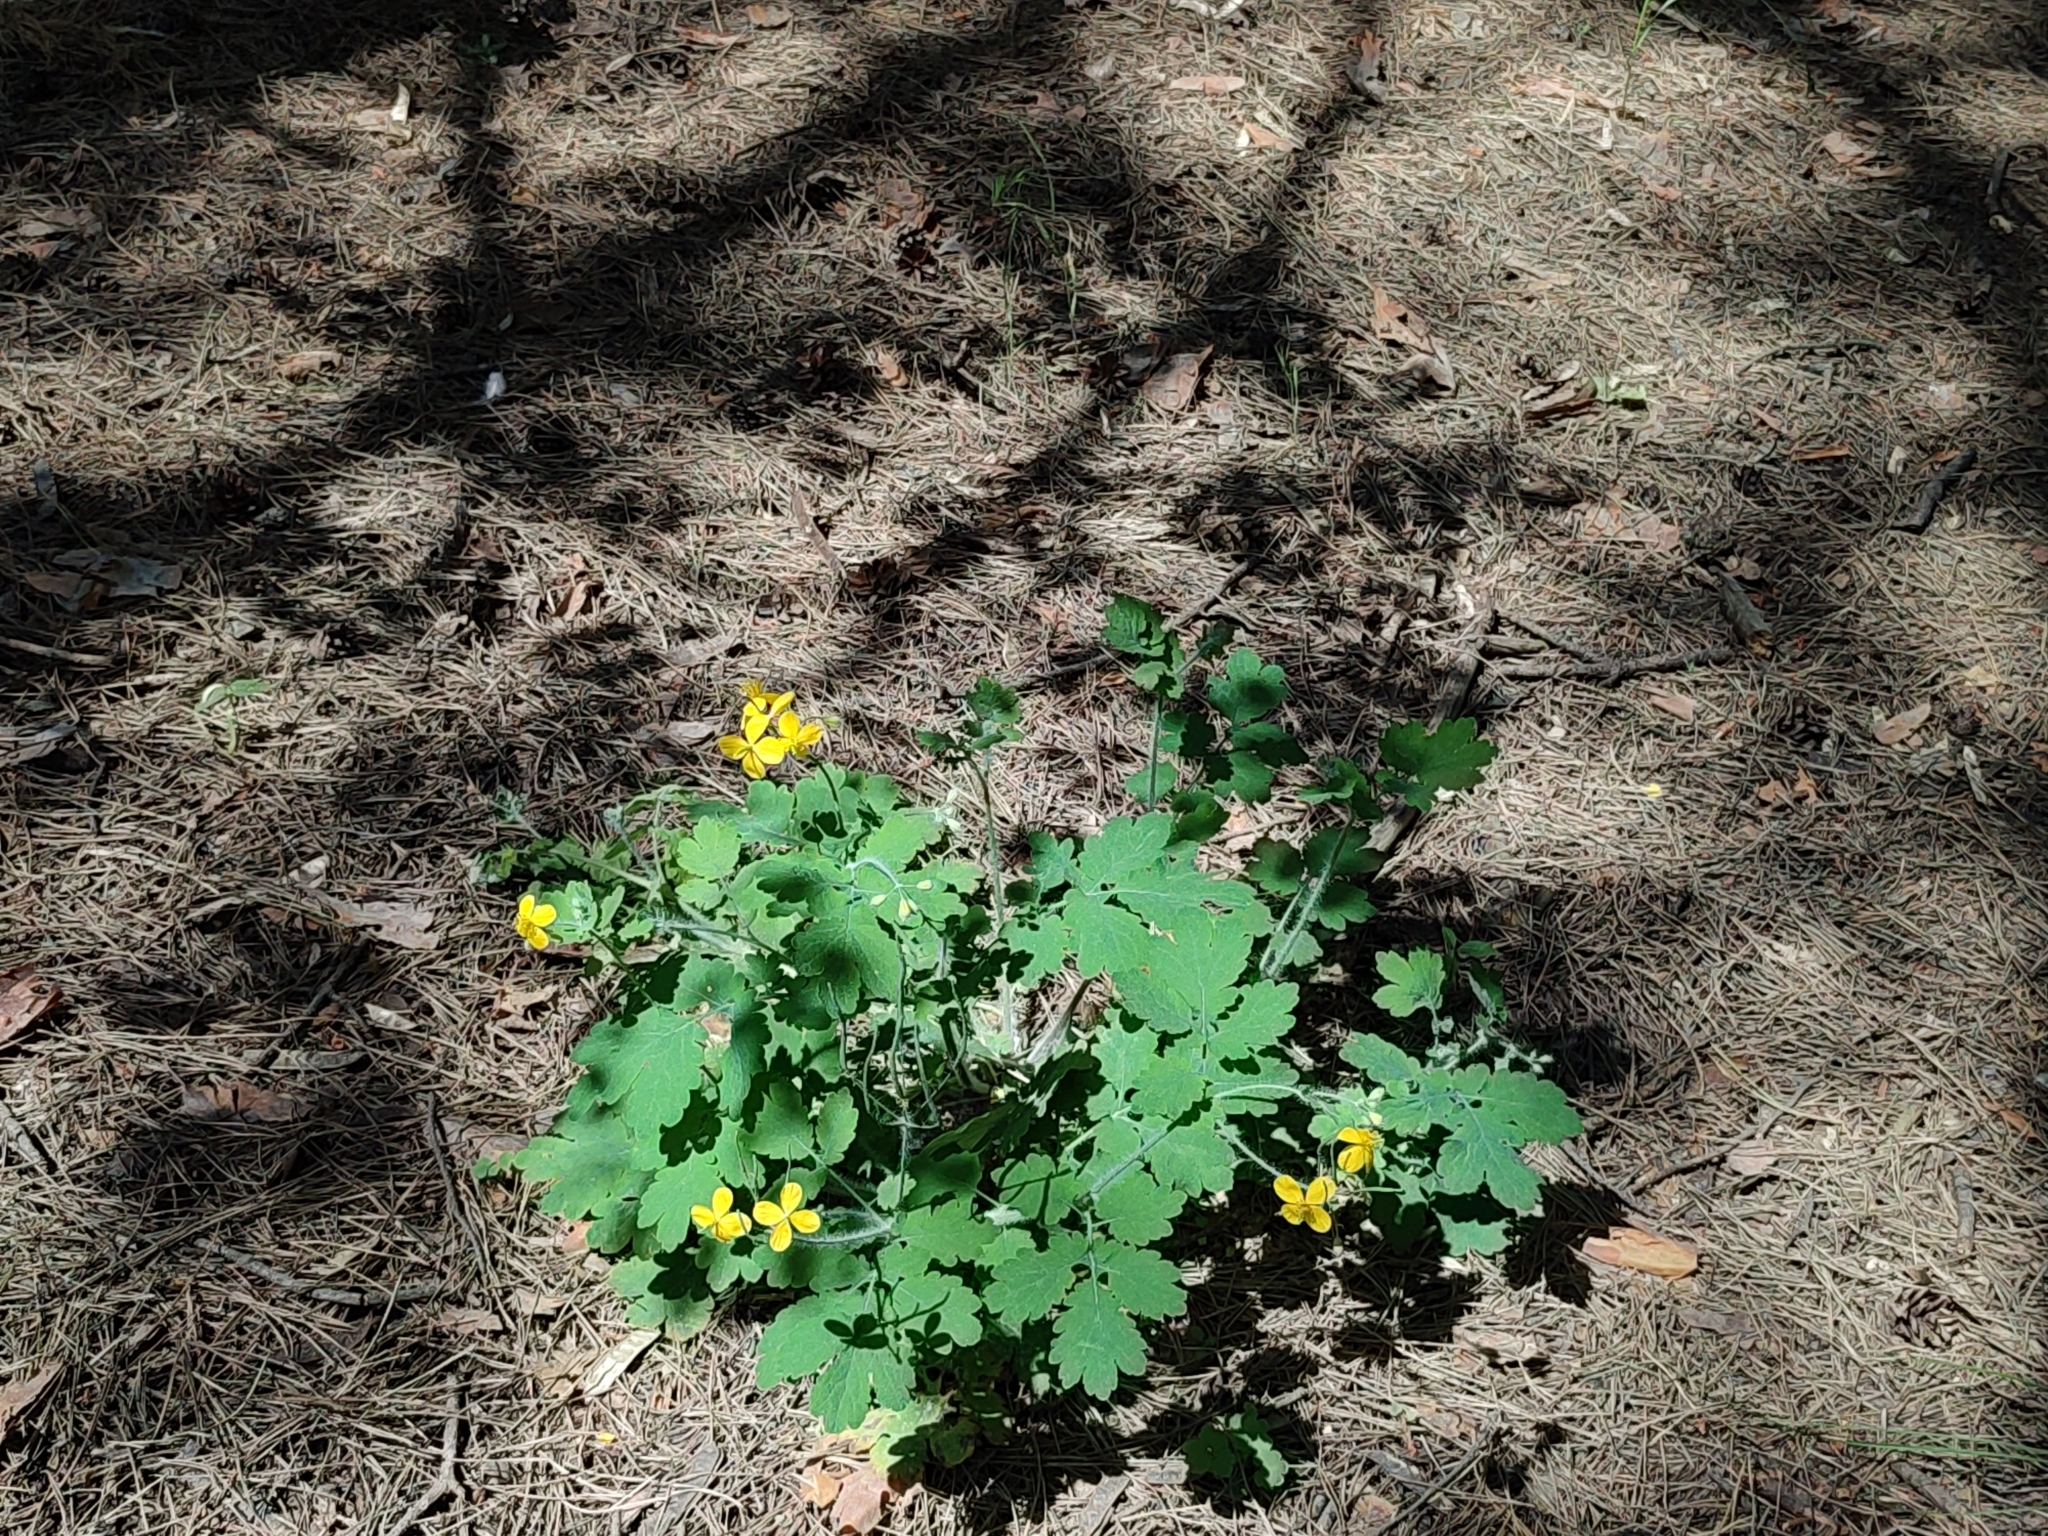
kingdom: Plantae
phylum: Tracheophyta
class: Magnoliopsida
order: Ranunculales
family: Papaveraceae
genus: Chelidonium
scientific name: Chelidonium majus
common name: Greater celandine
